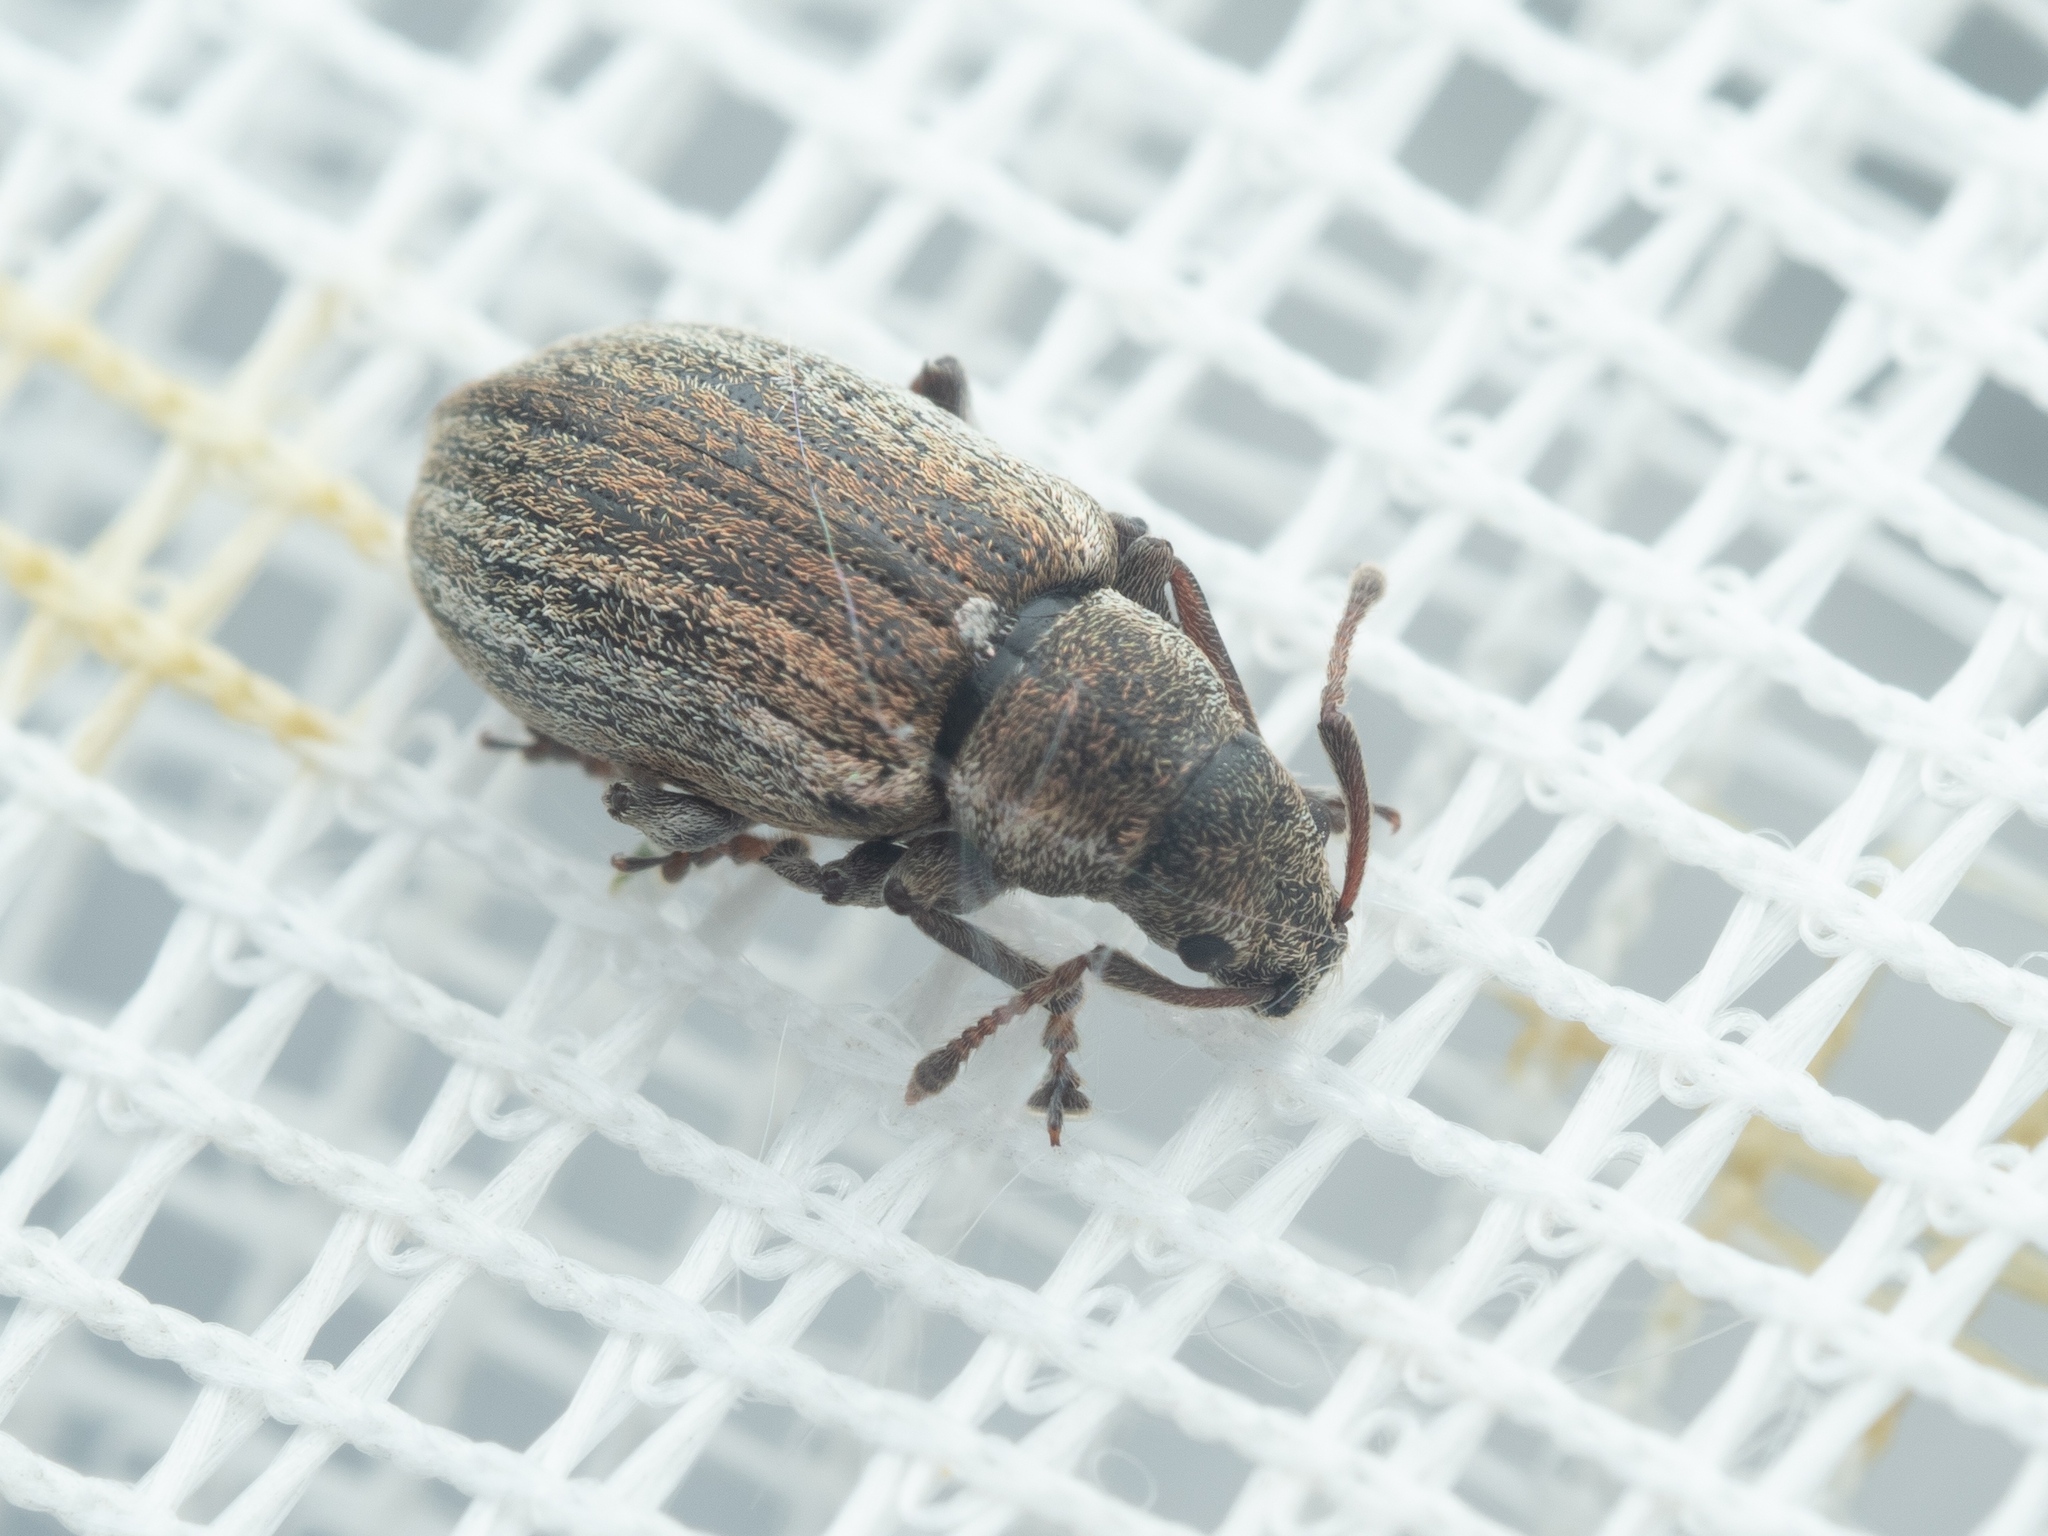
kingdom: Animalia
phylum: Arthropoda
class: Insecta
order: Coleoptera
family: Curculionidae
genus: Phyllobius
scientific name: Phyllobius pyri
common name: Common leaf weevil
